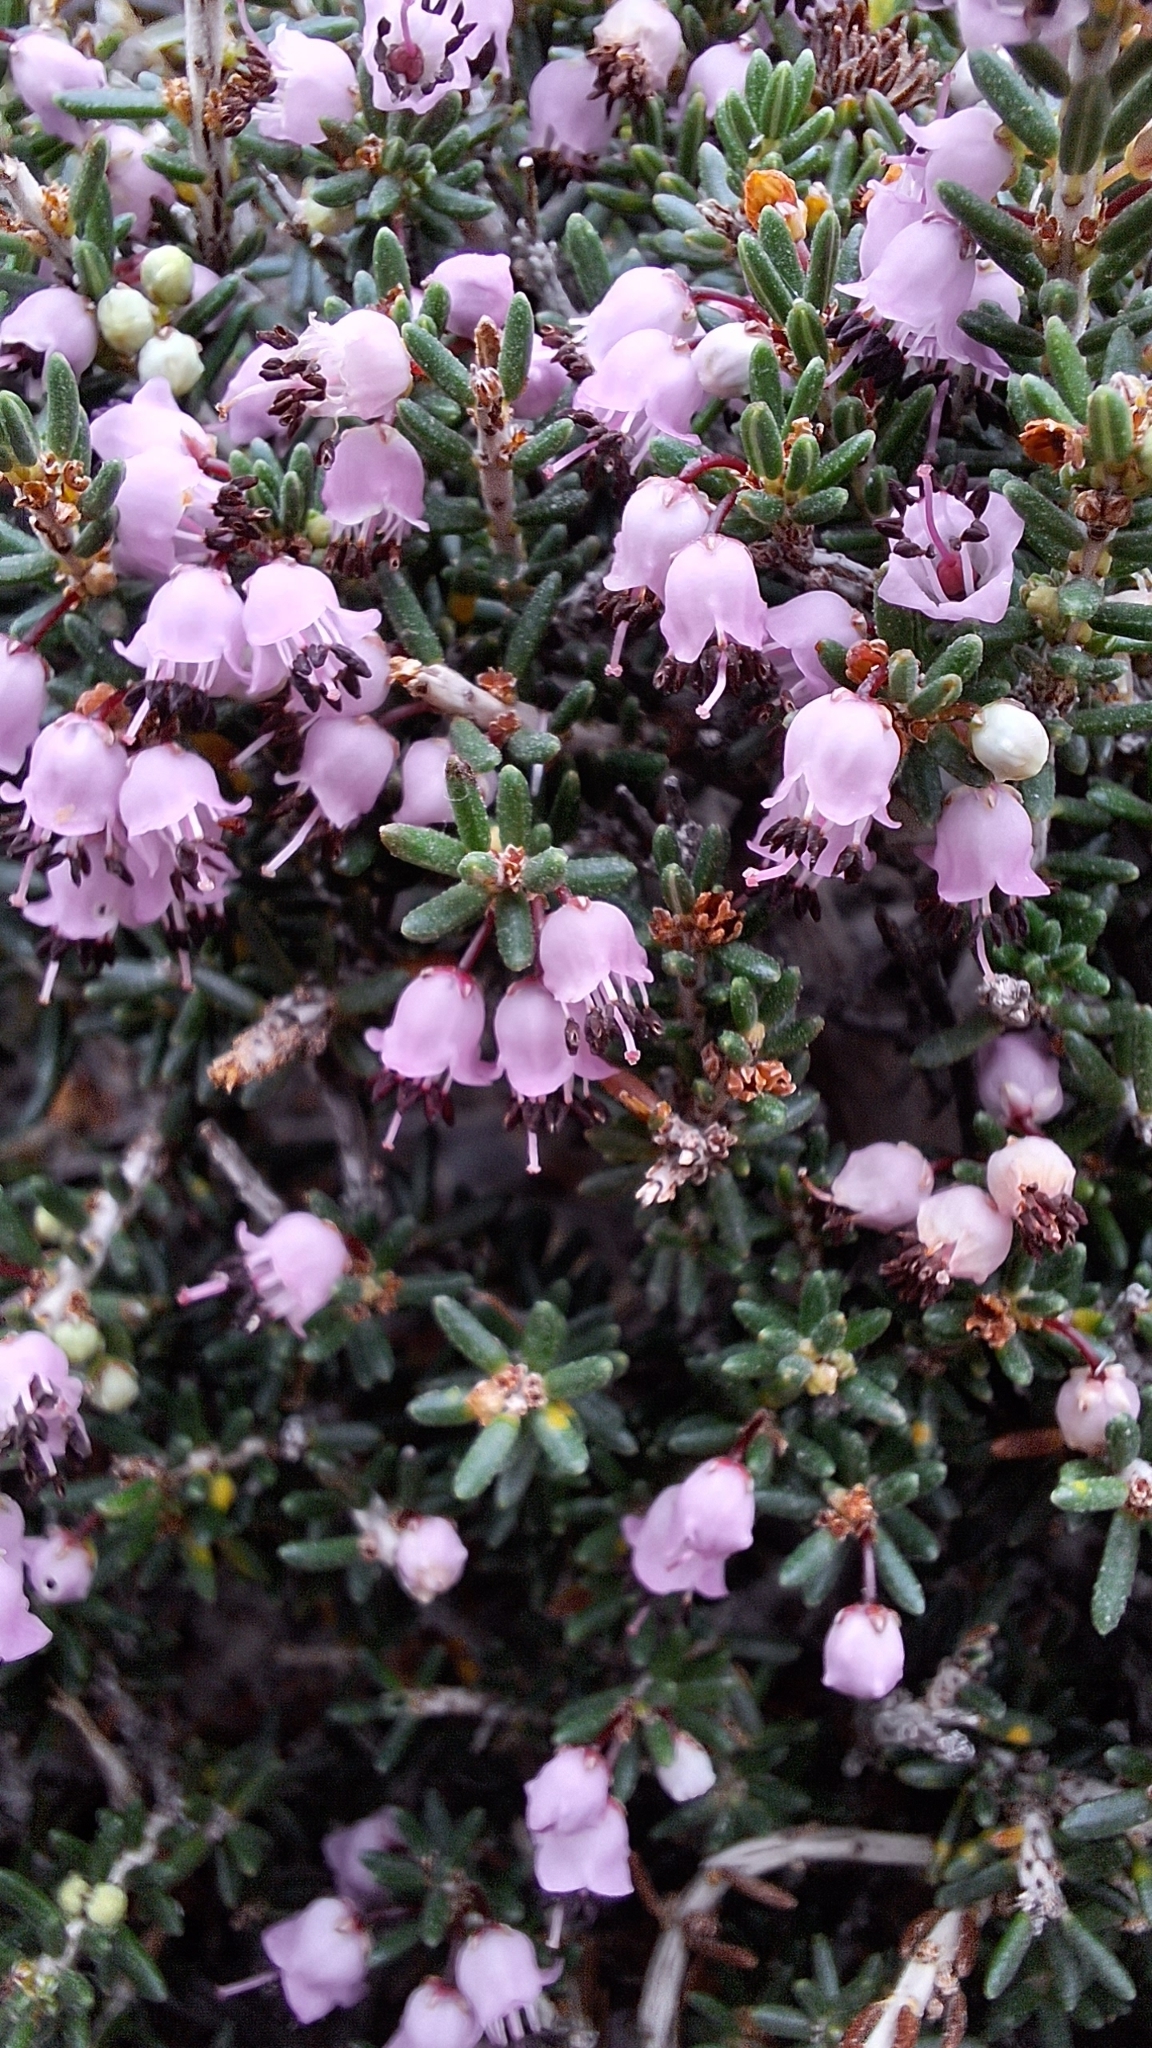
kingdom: Plantae
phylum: Tracheophyta
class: Magnoliopsida
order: Ericales
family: Ericaceae
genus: Erica
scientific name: Erica manipuliflora
